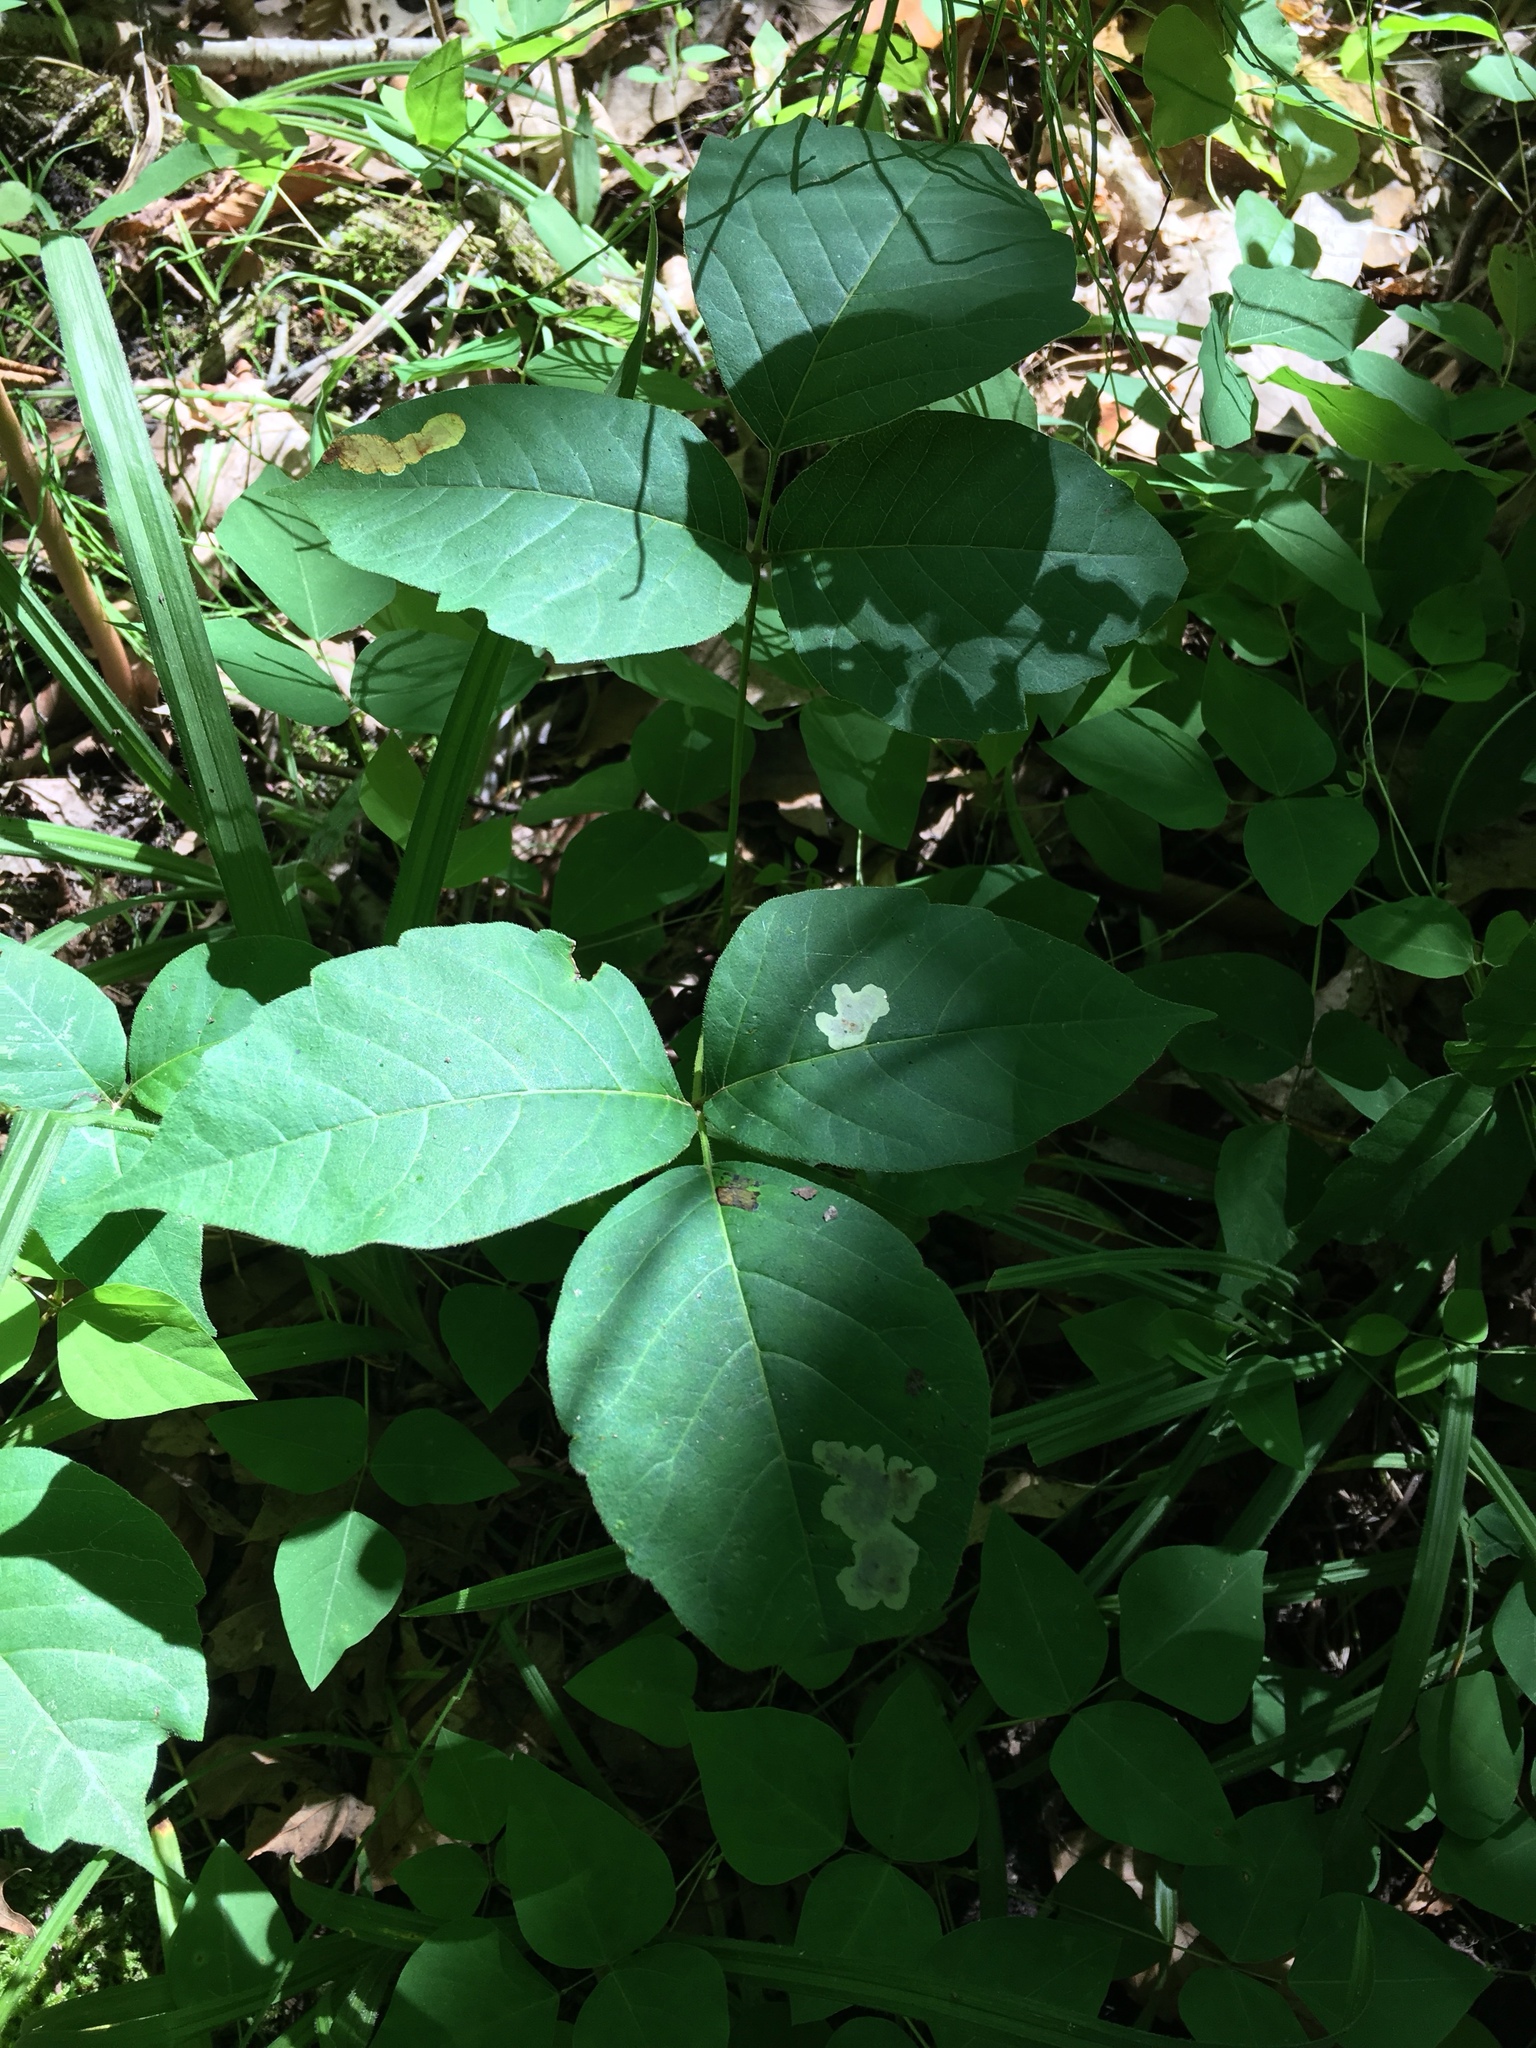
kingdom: Plantae
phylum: Tracheophyta
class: Magnoliopsida
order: Sapindales
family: Anacardiaceae
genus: Toxicodendron
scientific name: Toxicodendron radicans
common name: Poison ivy
